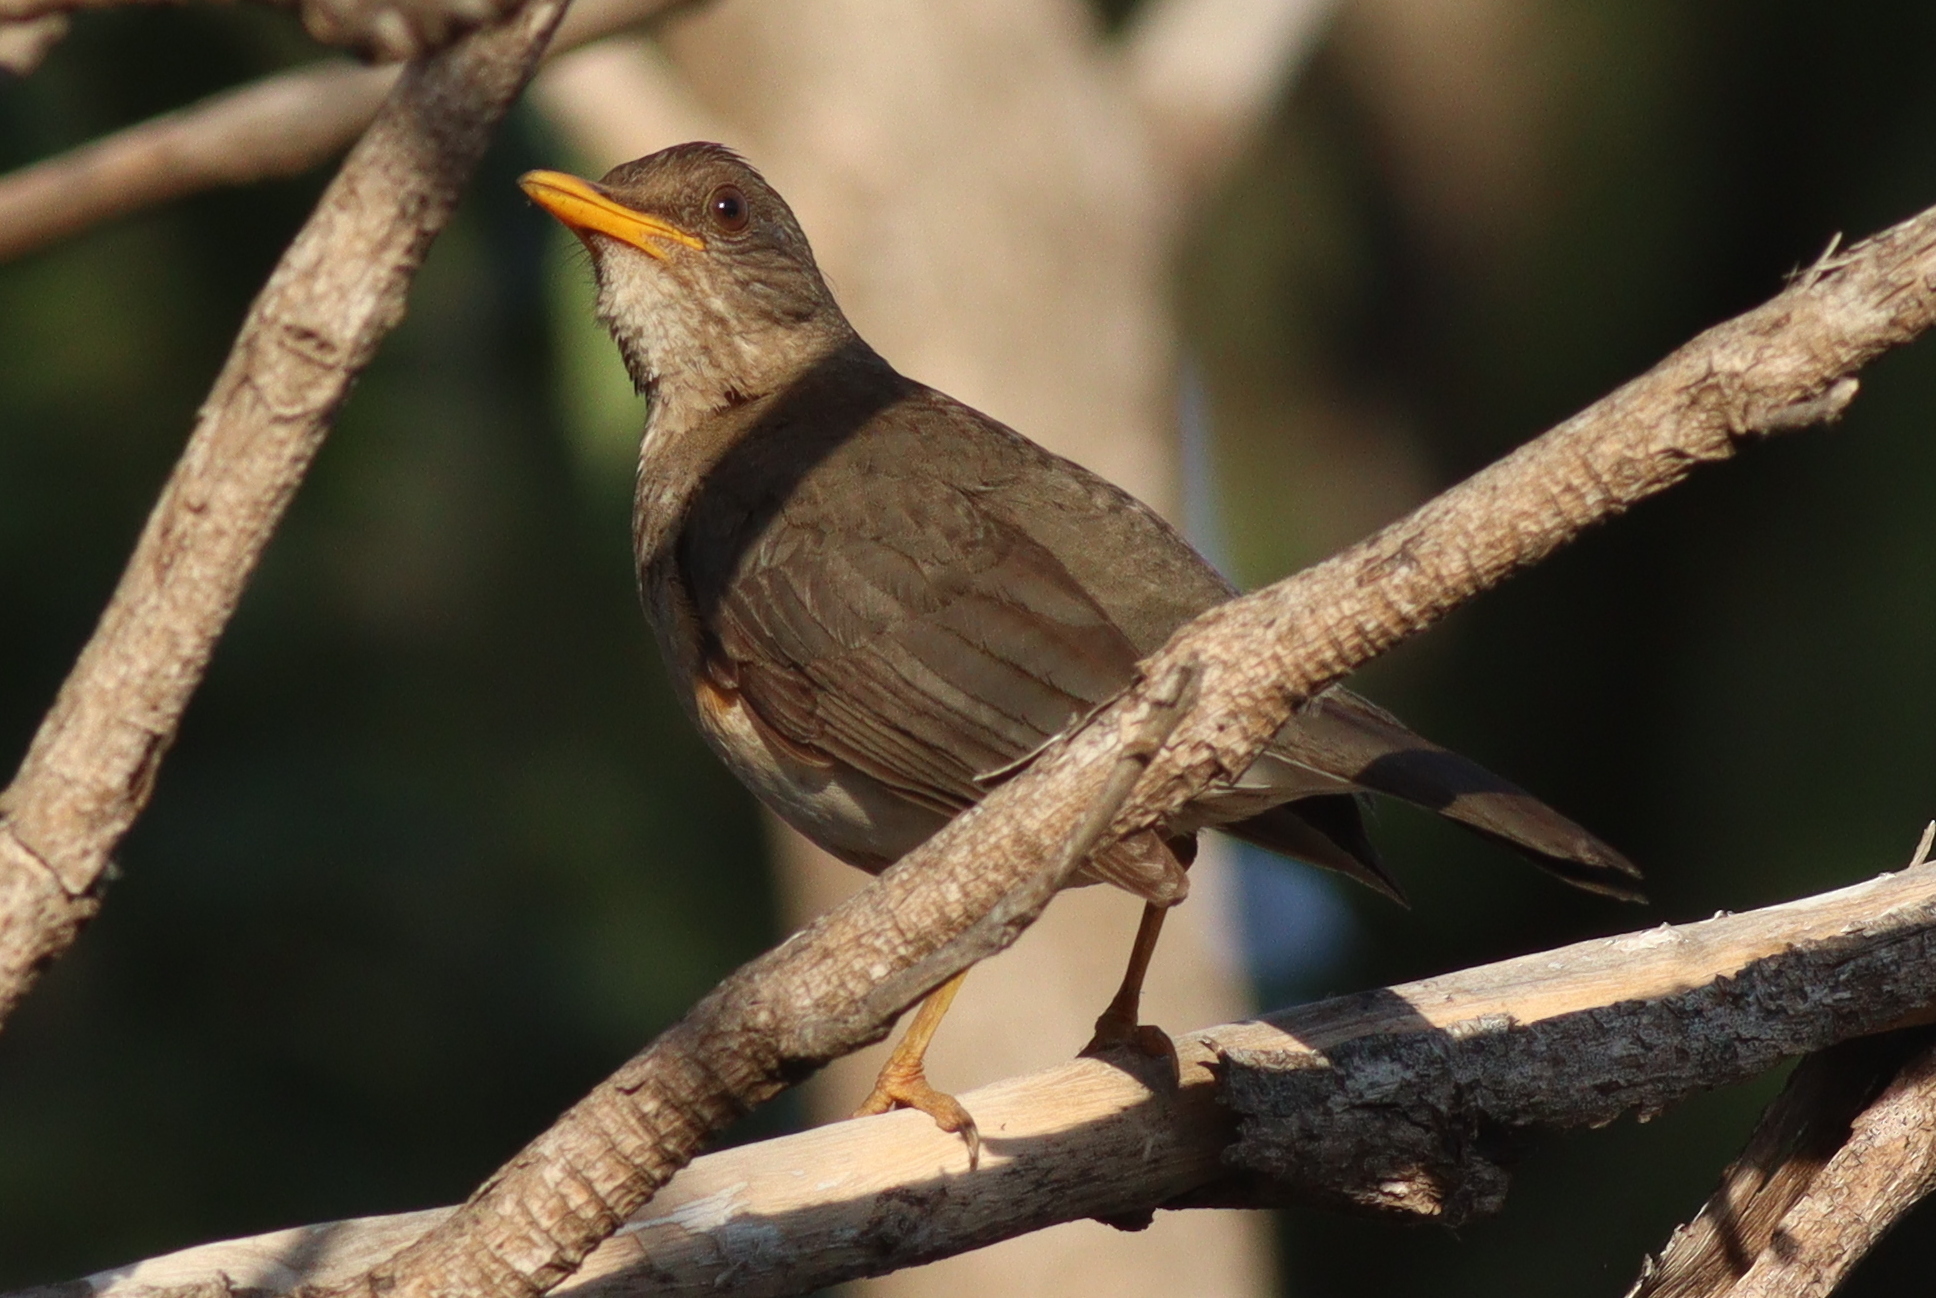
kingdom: Animalia
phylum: Chordata
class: Aves
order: Passeriformes
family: Turdidae
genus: Turdus
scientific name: Turdus pelios
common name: African thrush
